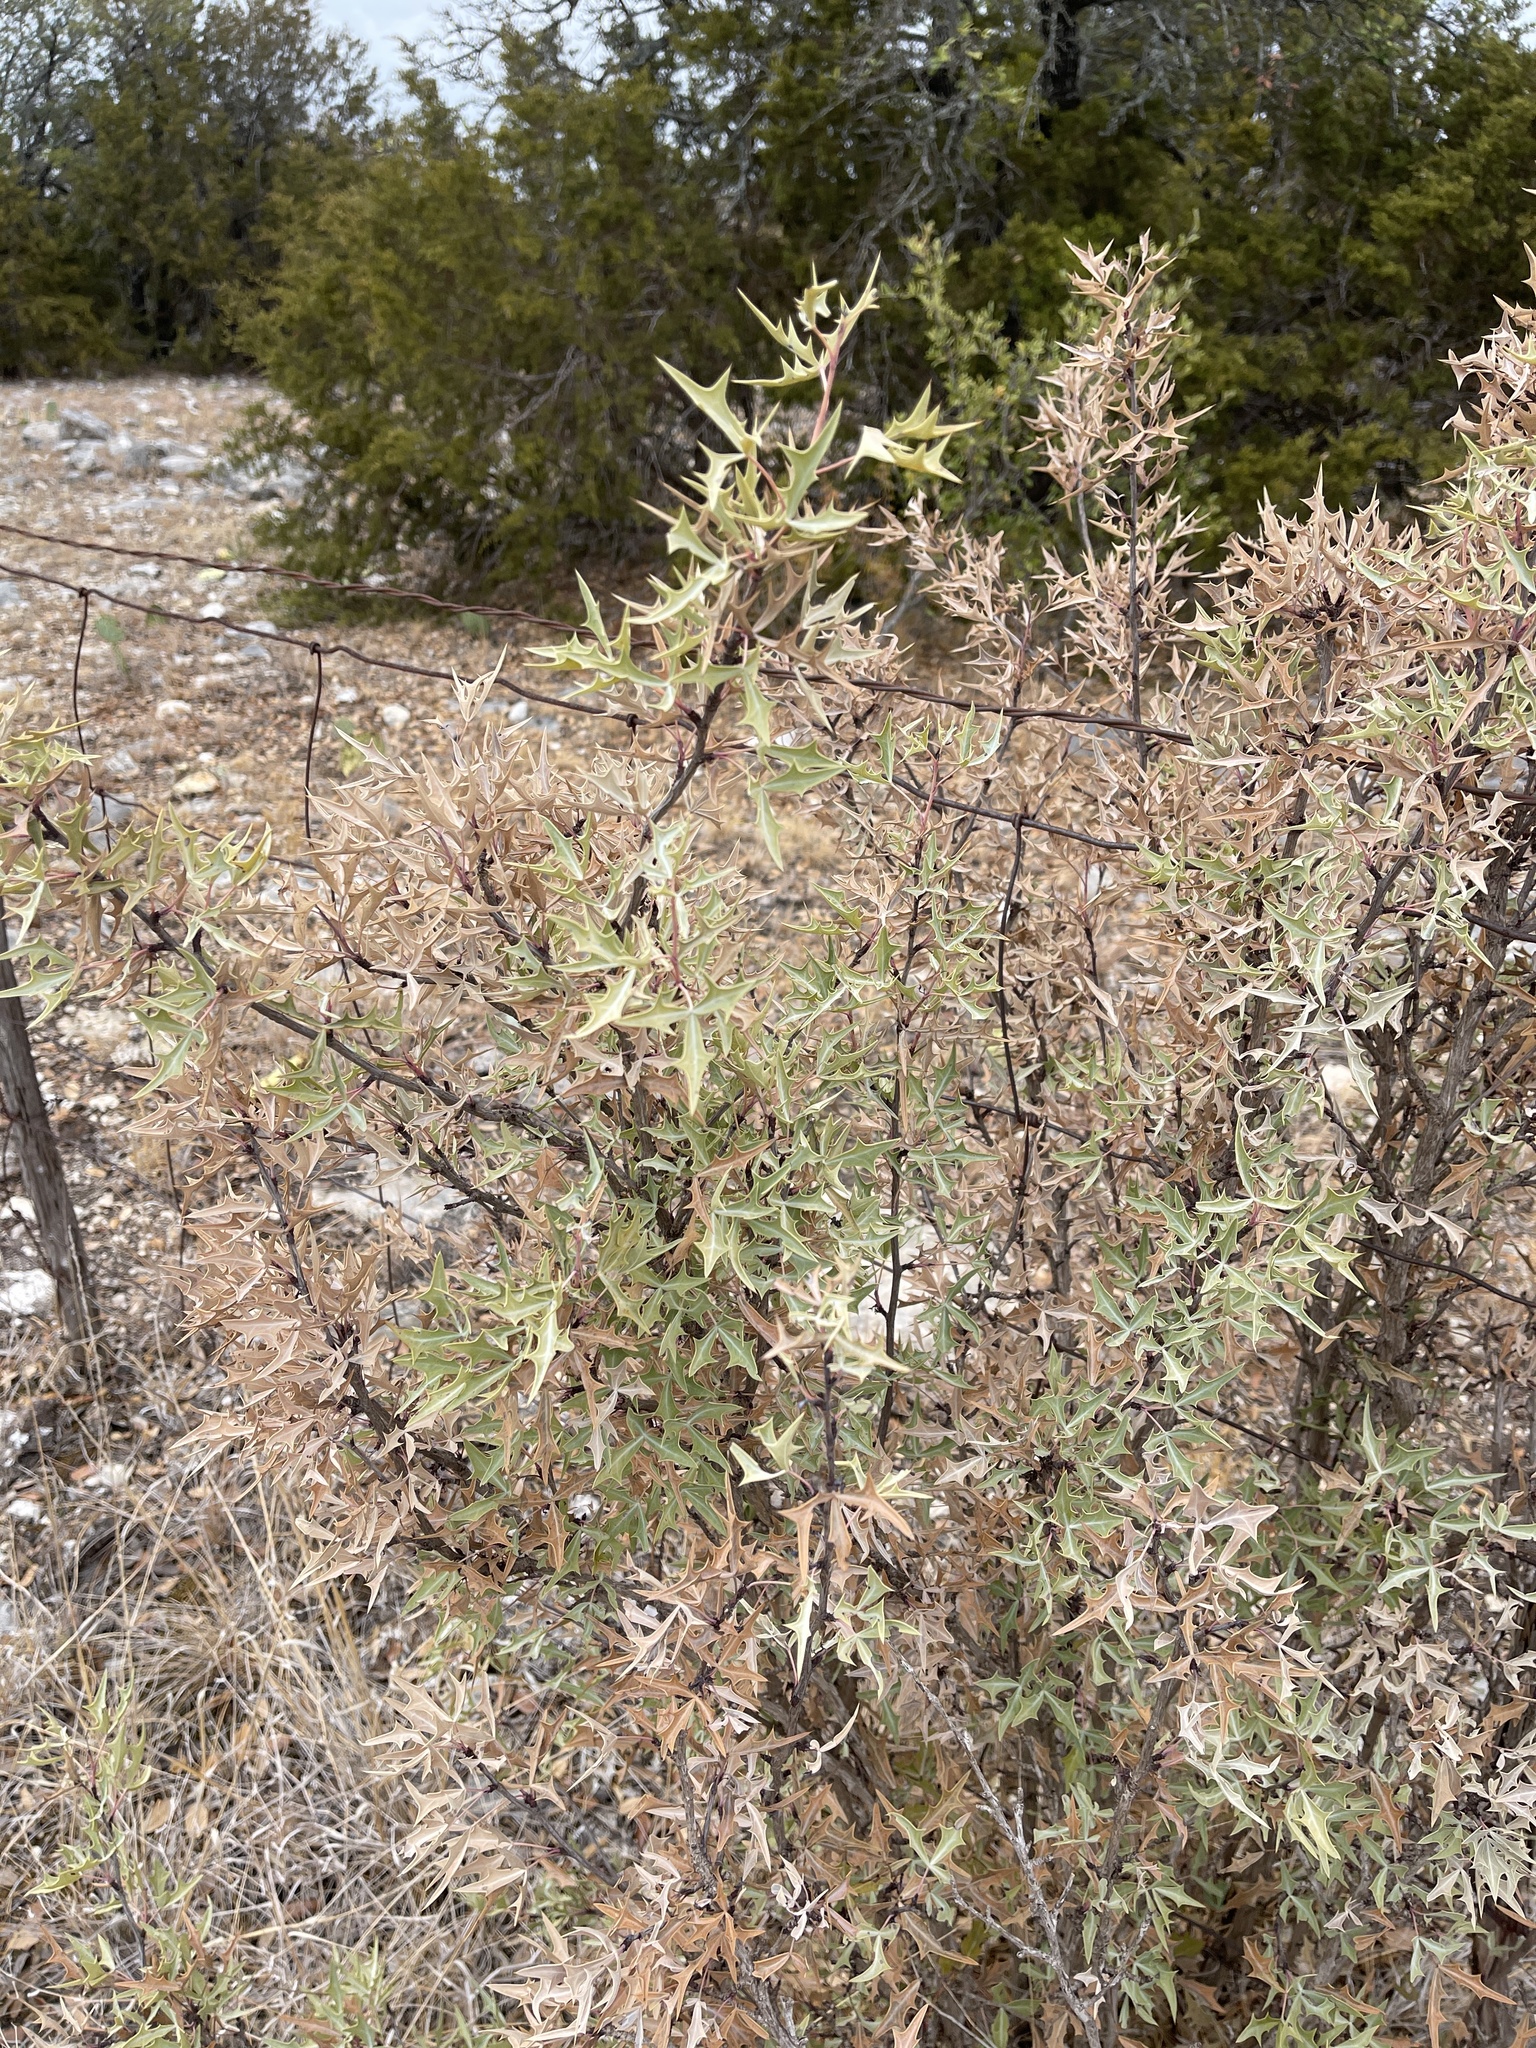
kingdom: Plantae
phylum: Tracheophyta
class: Magnoliopsida
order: Ranunculales
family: Berberidaceae
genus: Alloberberis
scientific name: Alloberberis trifoliolata
